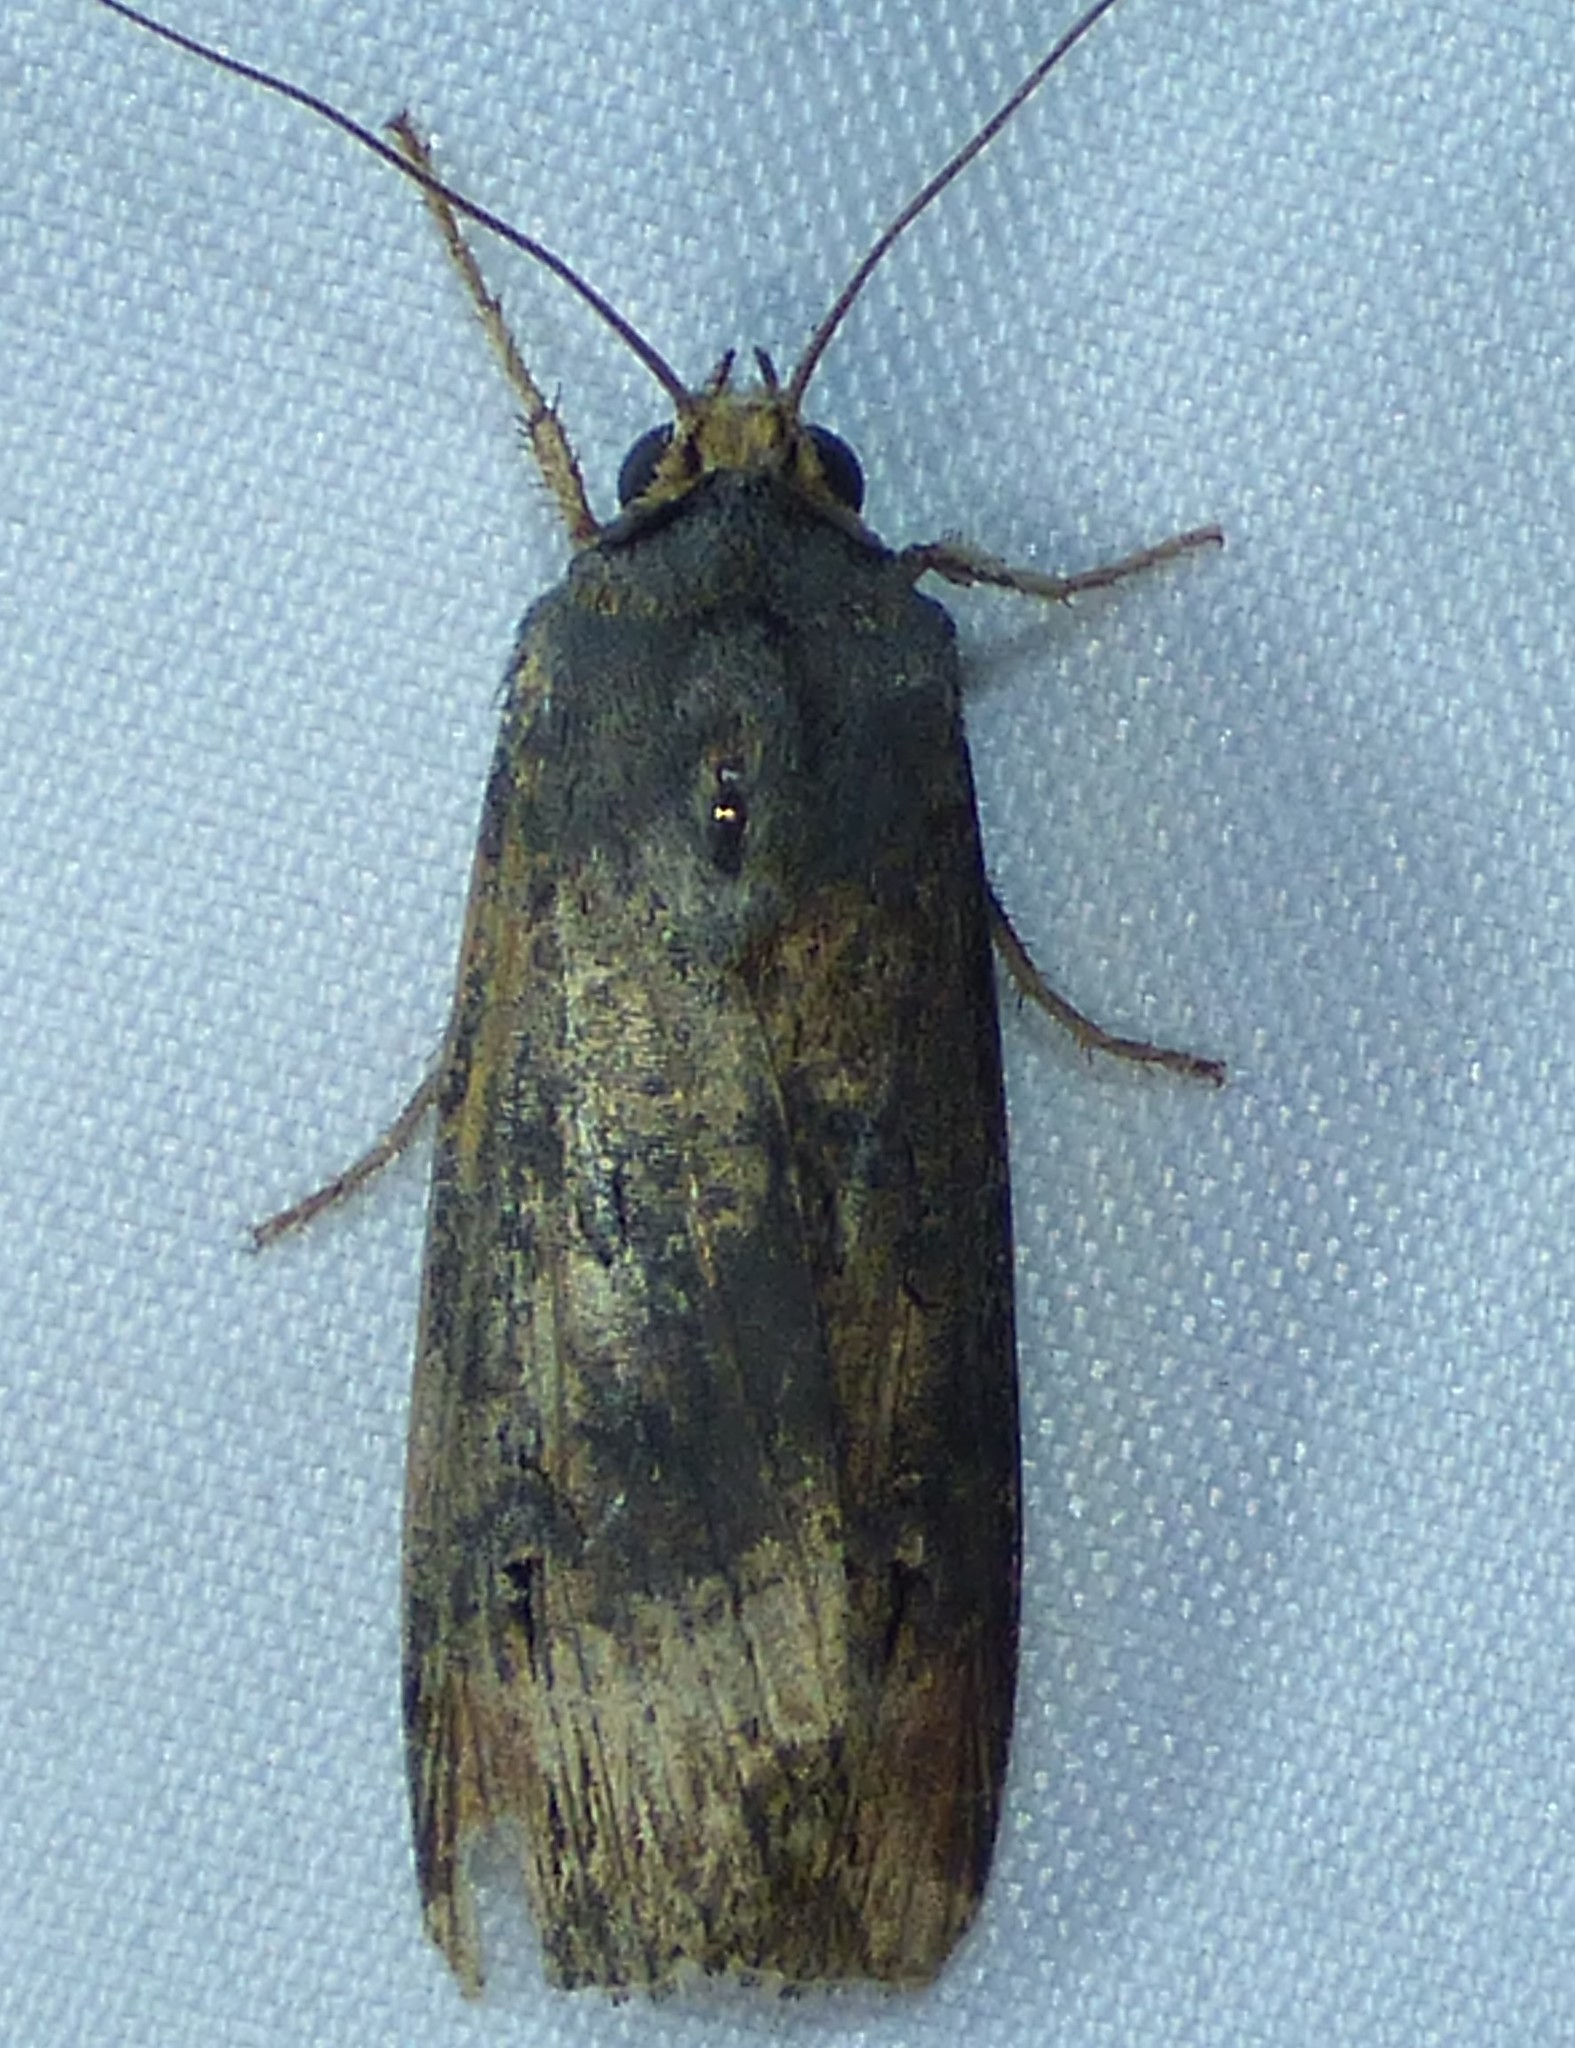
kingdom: Animalia
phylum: Arthropoda
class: Insecta
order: Lepidoptera
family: Noctuidae
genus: Agrotis
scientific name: Agrotis ipsilon
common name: Dark sword-grass
